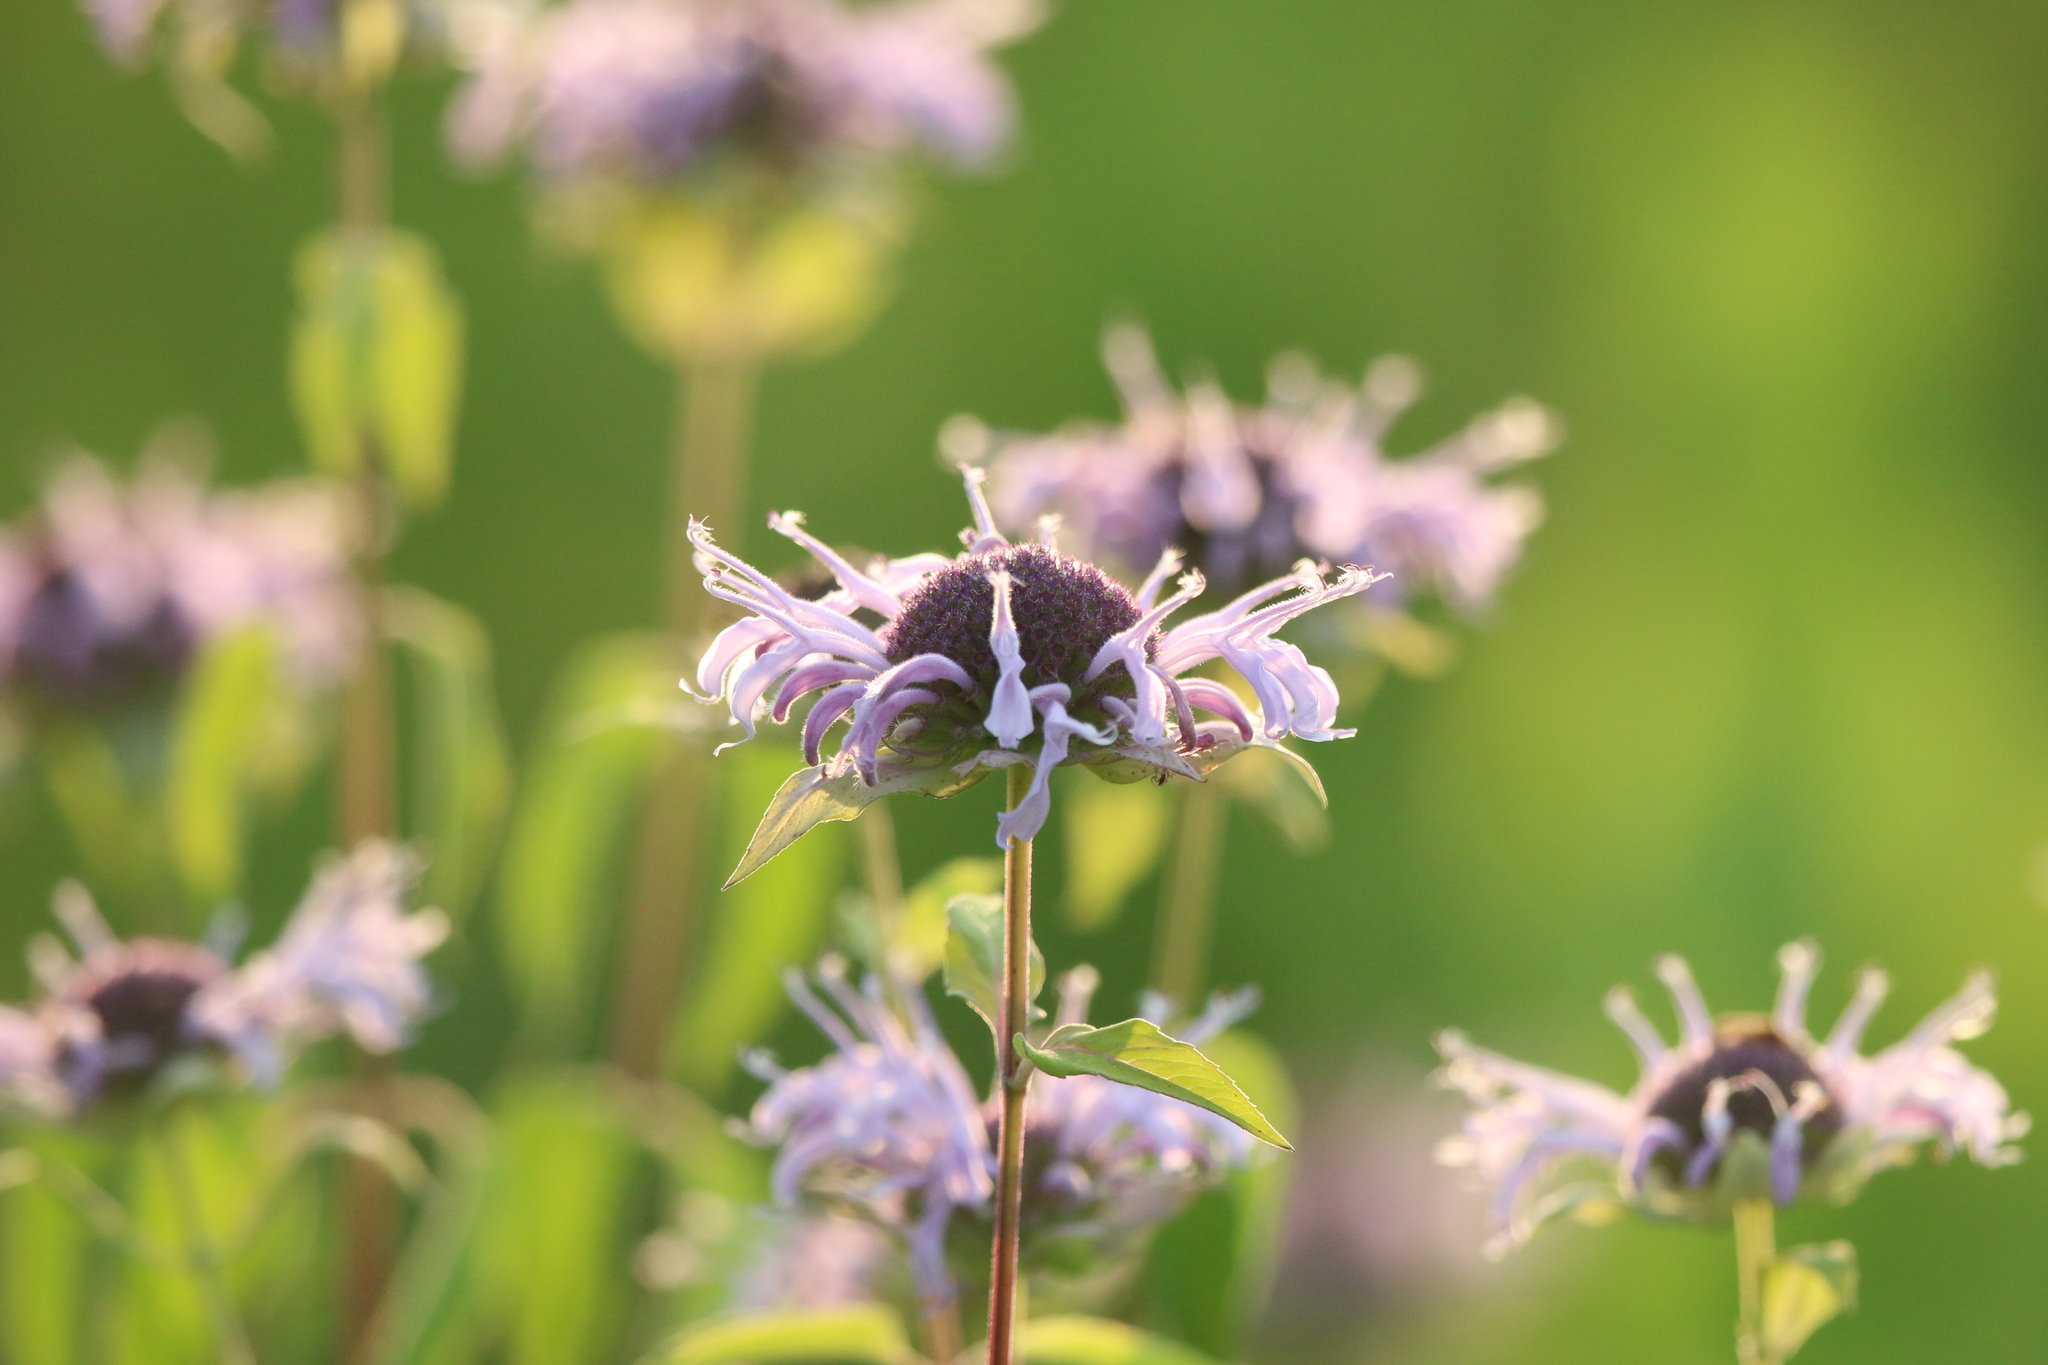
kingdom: Plantae
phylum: Tracheophyta
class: Magnoliopsida
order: Lamiales
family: Lamiaceae
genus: Monarda
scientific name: Monarda fistulosa
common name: Purple beebalm
